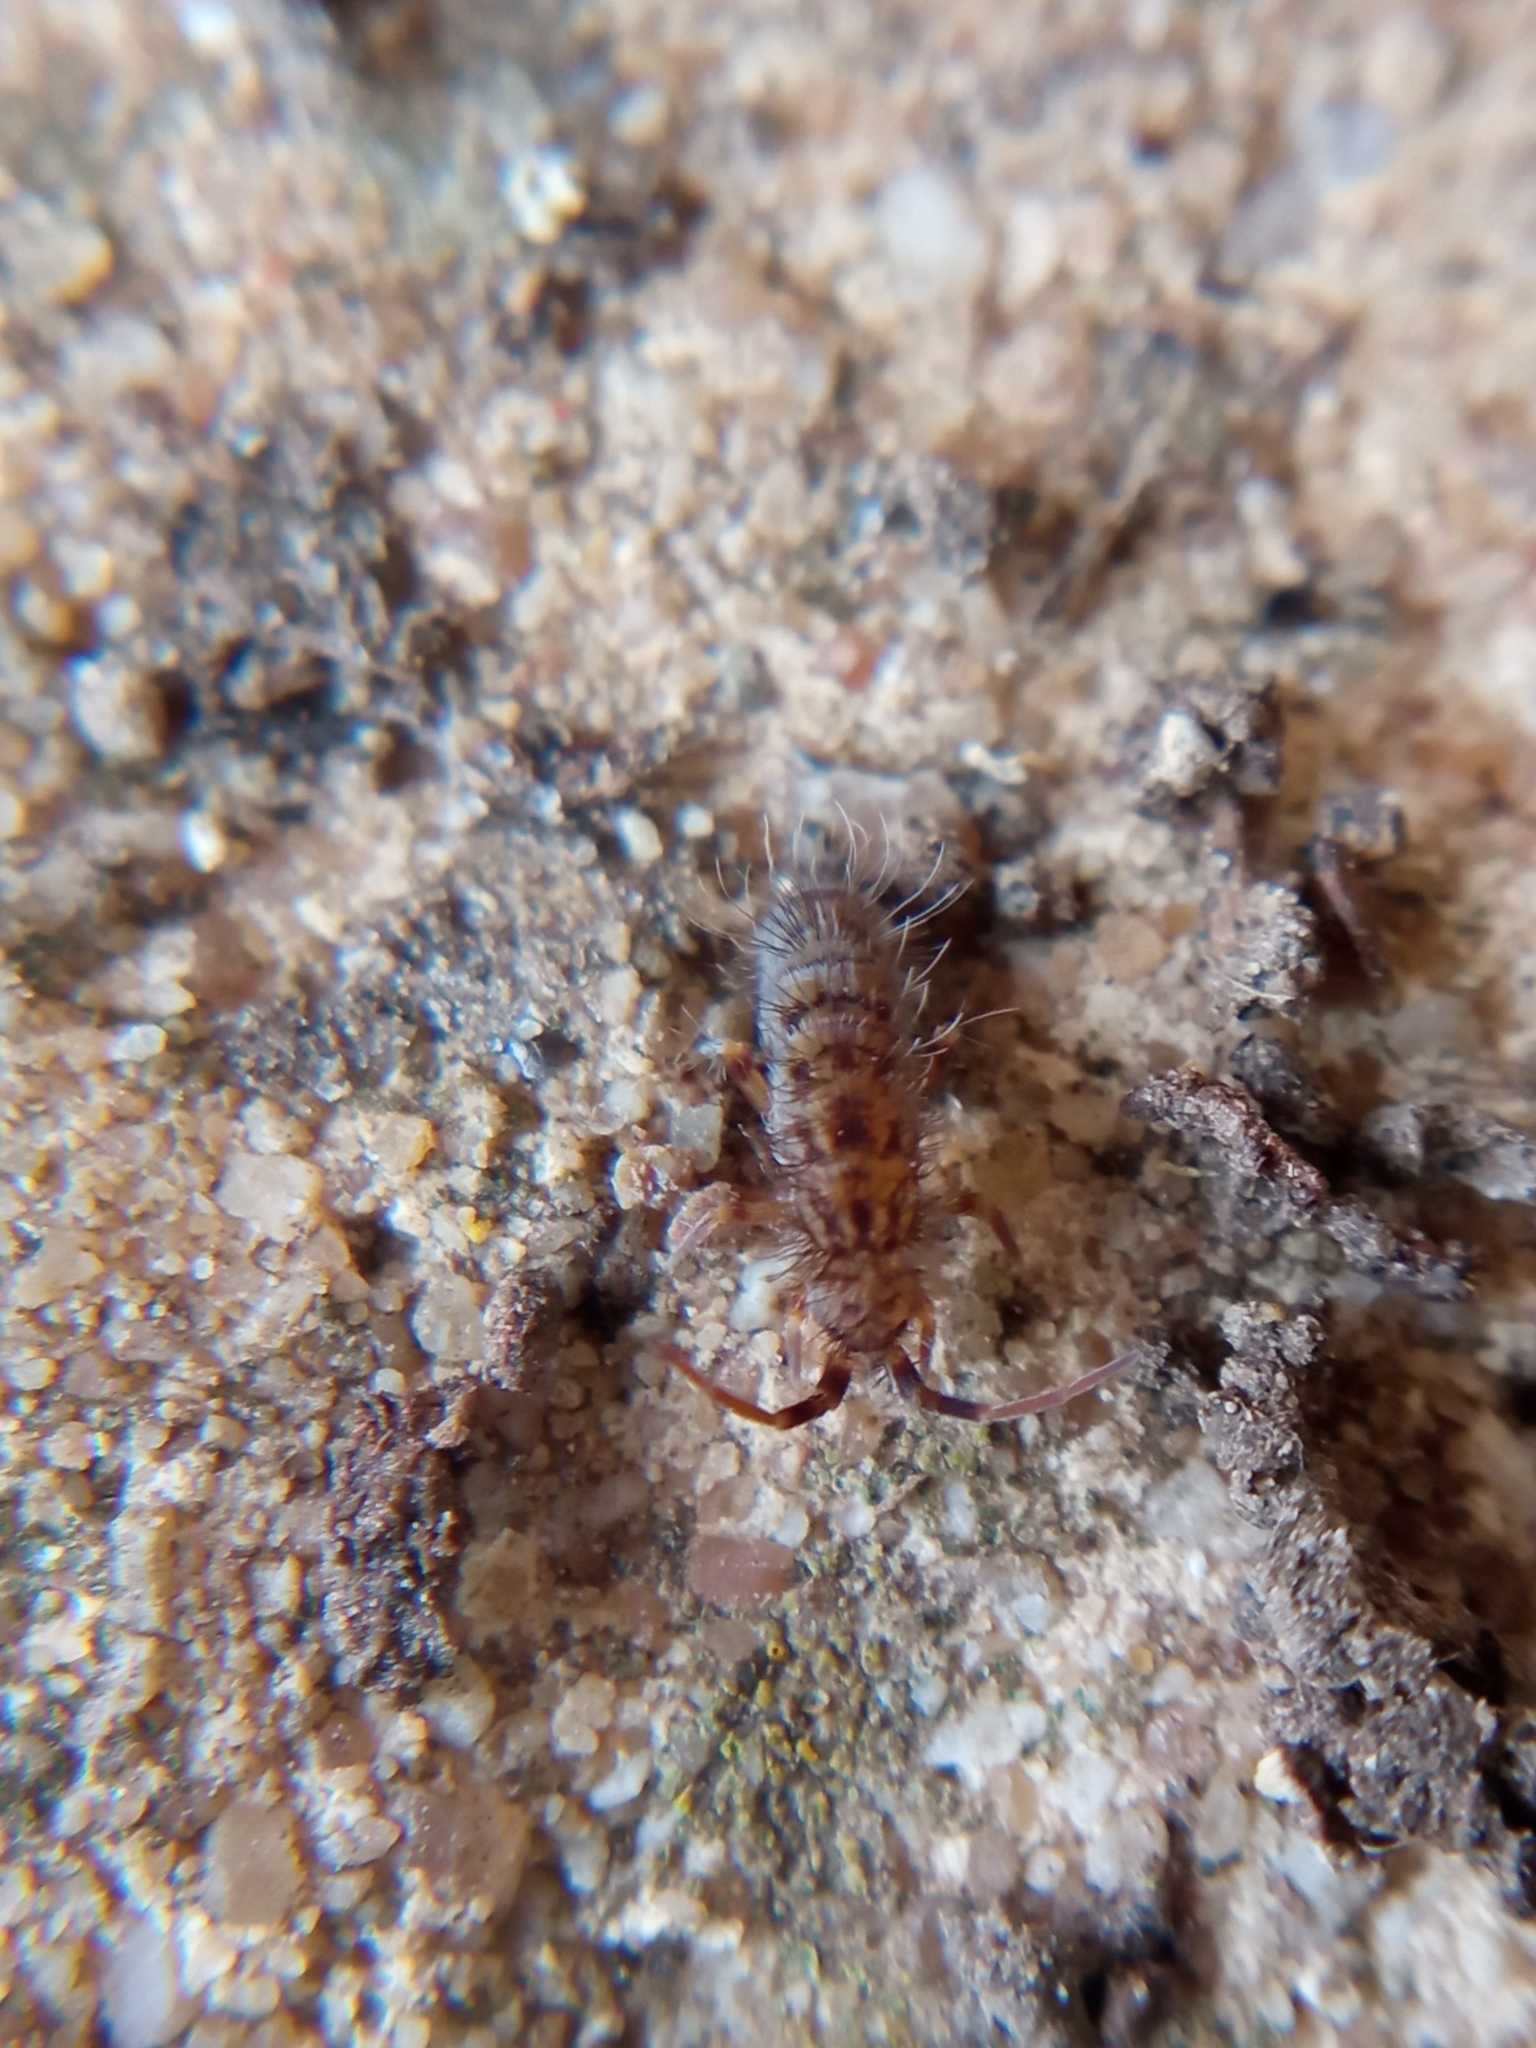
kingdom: Animalia
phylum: Arthropoda
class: Collembola
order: Entomobryomorpha
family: Orchesellidae
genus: Orchesella
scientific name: Orchesella villosa
